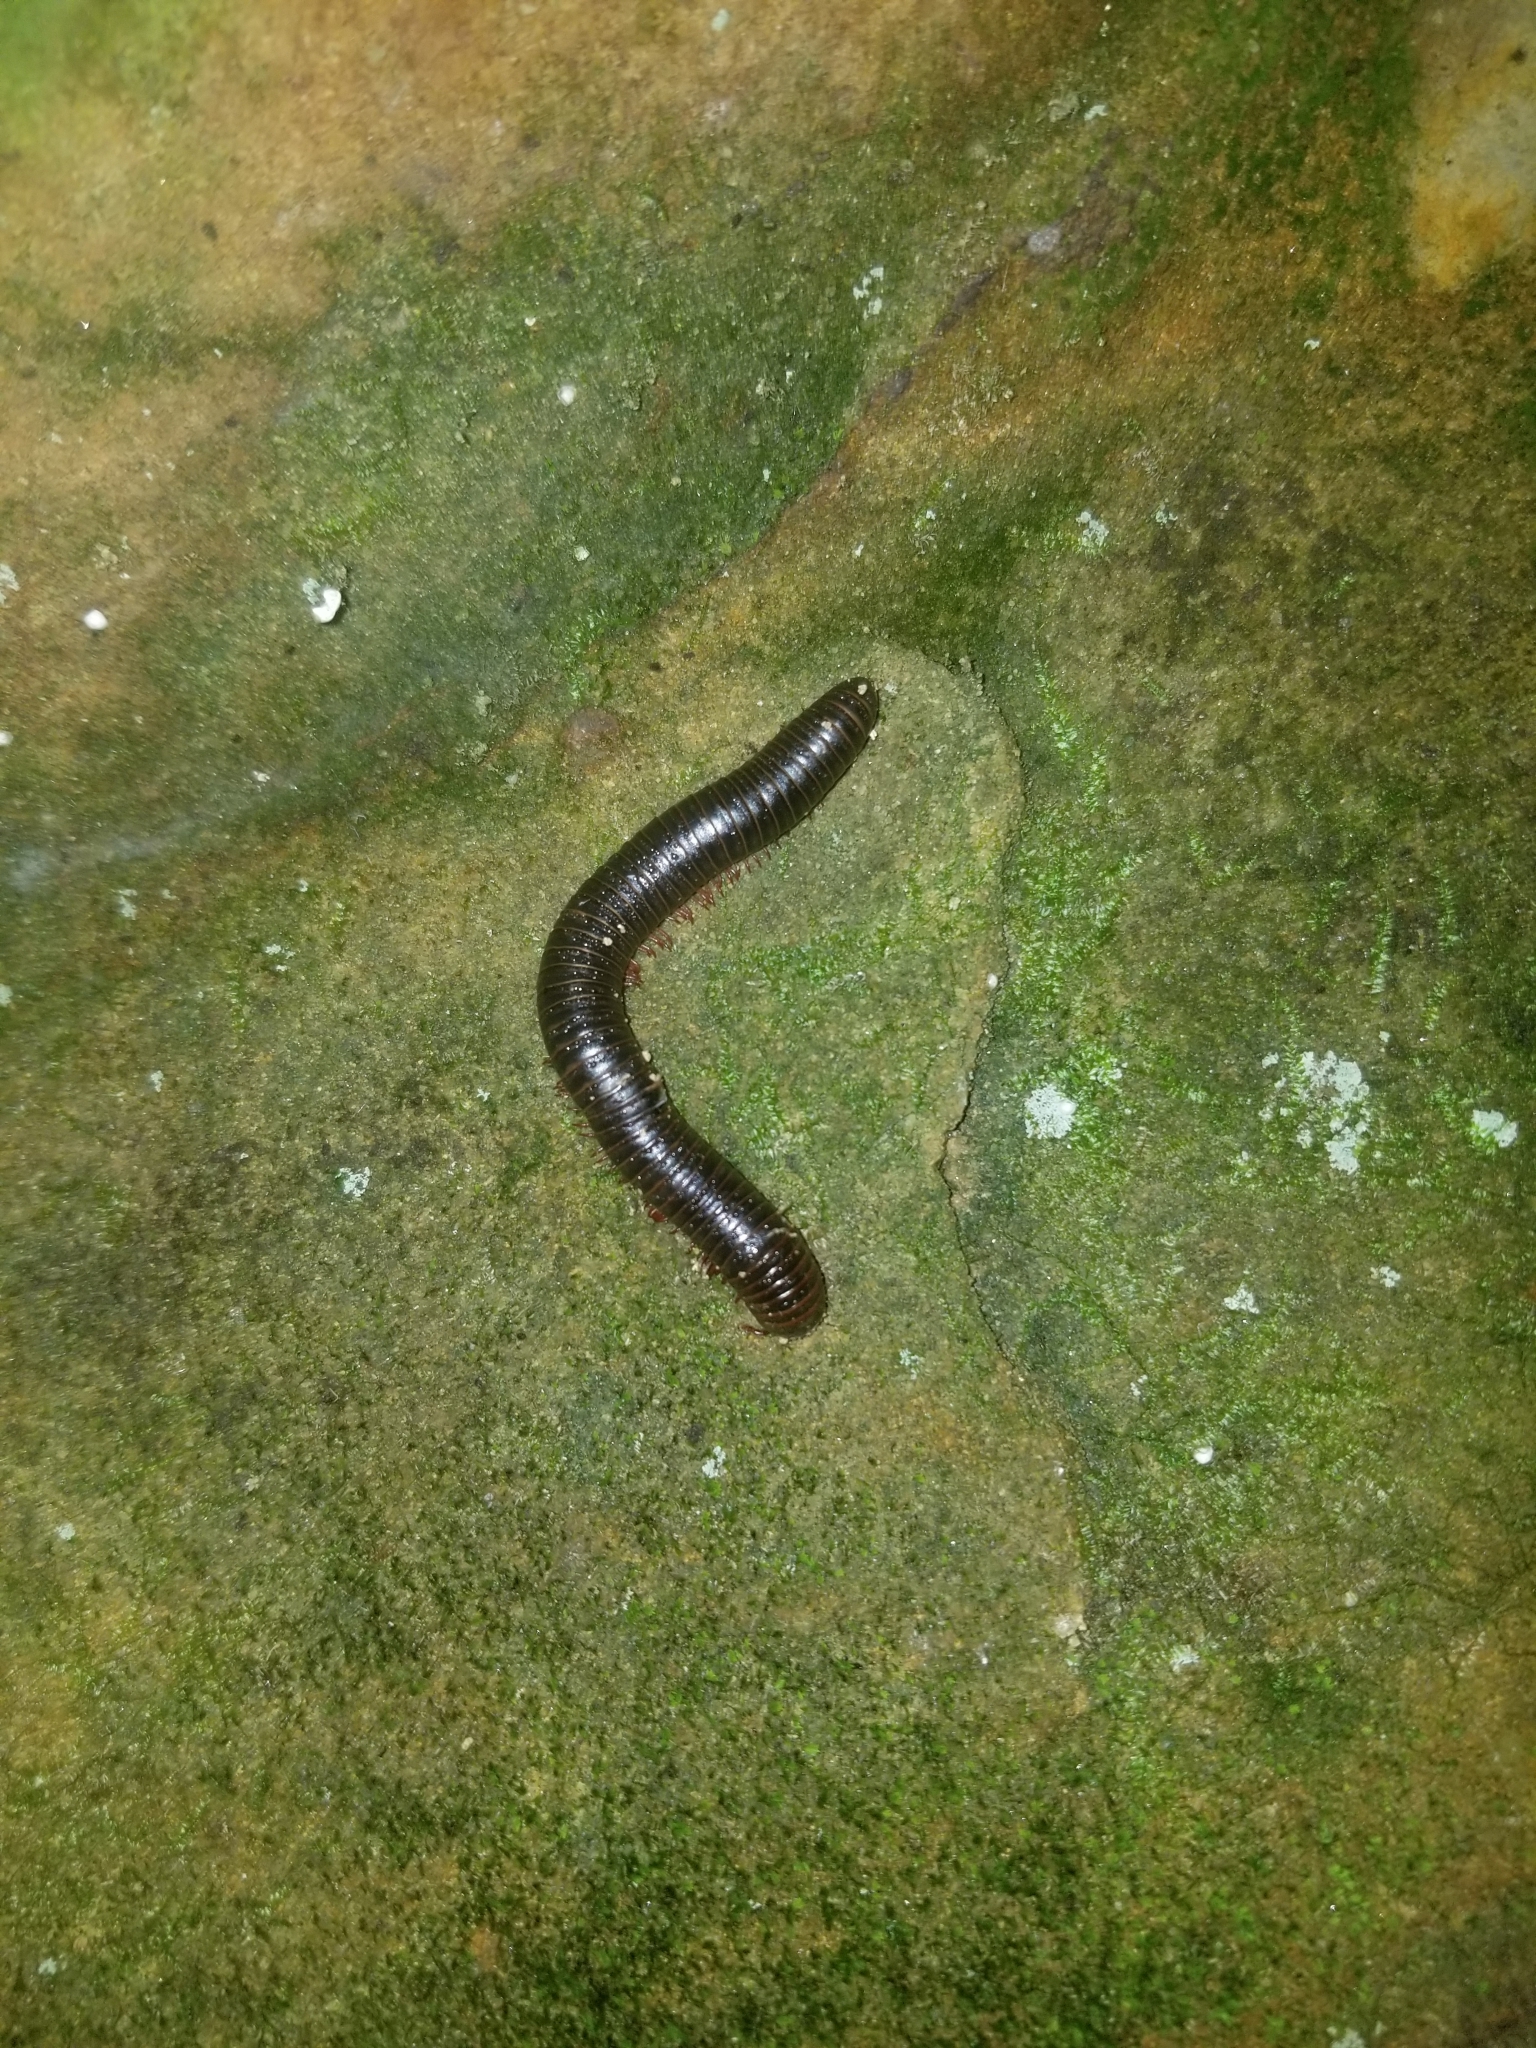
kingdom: Animalia
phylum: Arthropoda
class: Diplopoda
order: Spirobolida
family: Spirobolidae
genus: Narceus
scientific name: Narceus
